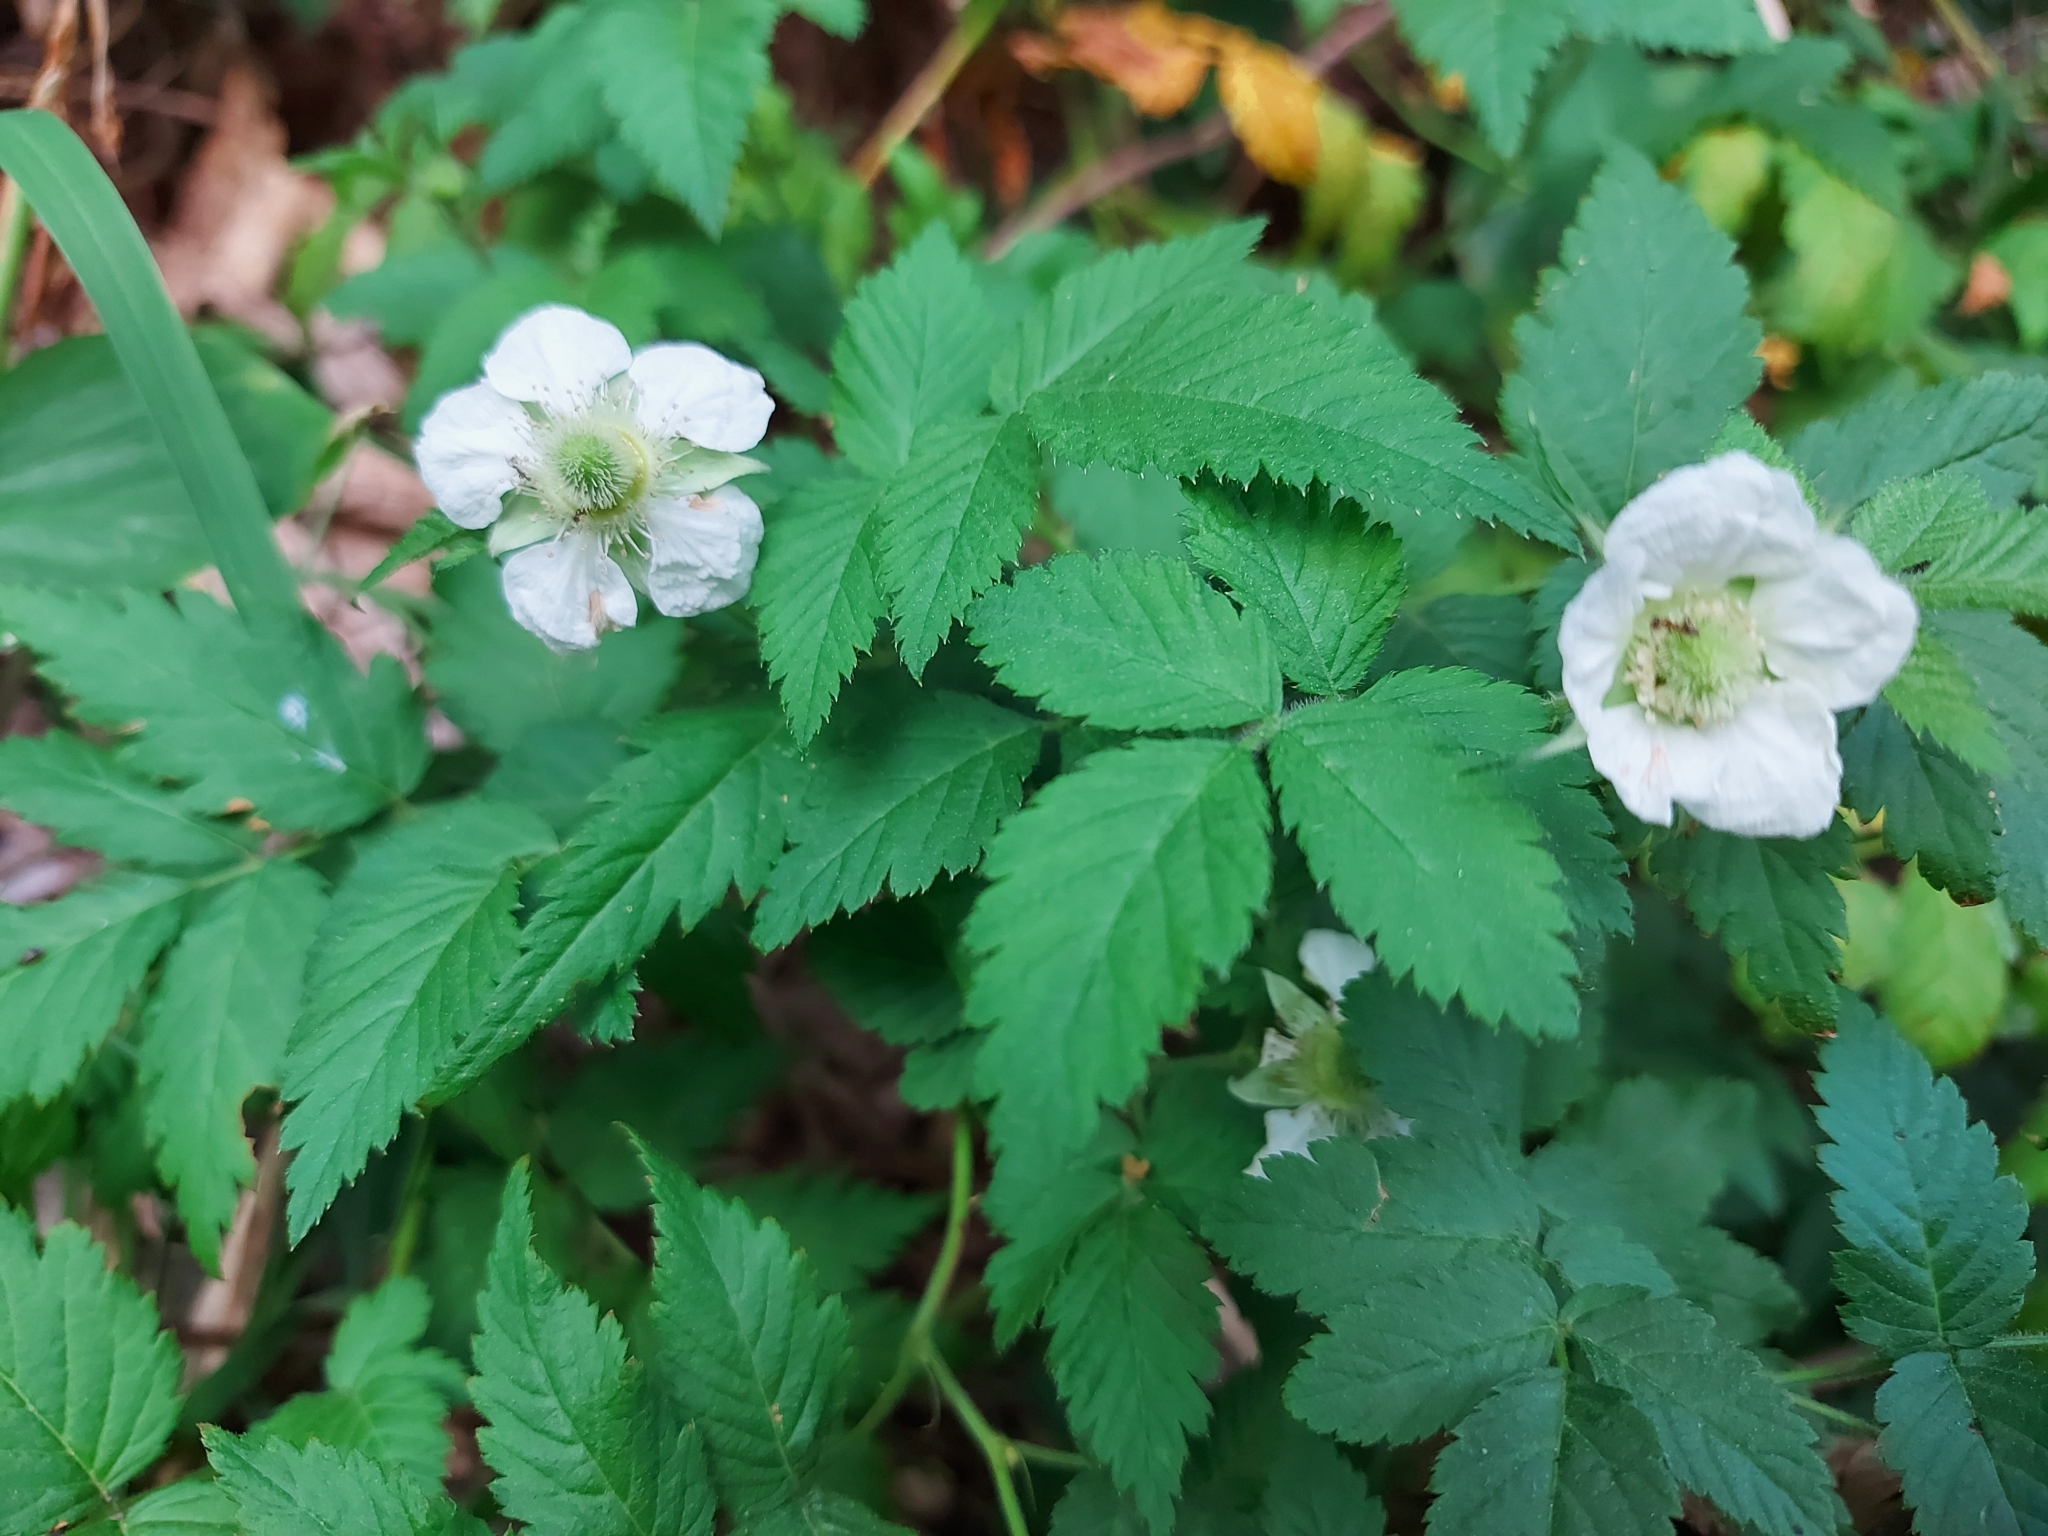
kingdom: Plantae
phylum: Tracheophyta
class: Magnoliopsida
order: Rosales
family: Rosaceae
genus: Rubus
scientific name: Rubus rosifolius
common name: Roseleaf raspberry
